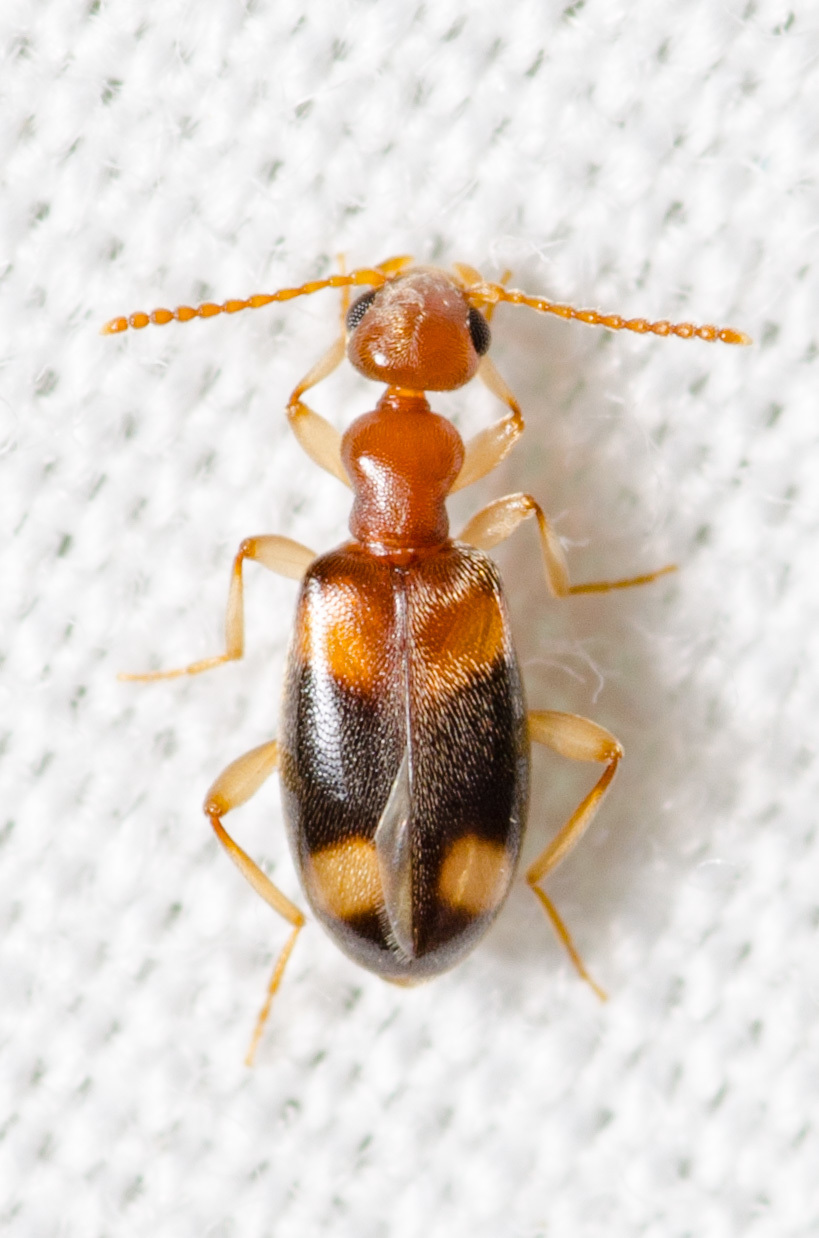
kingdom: Animalia
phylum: Arthropoda
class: Insecta
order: Coleoptera
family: Anthicidae
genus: Stricticollis
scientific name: Stricticollis tobias
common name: Two-dotted ant-like flower beetle
